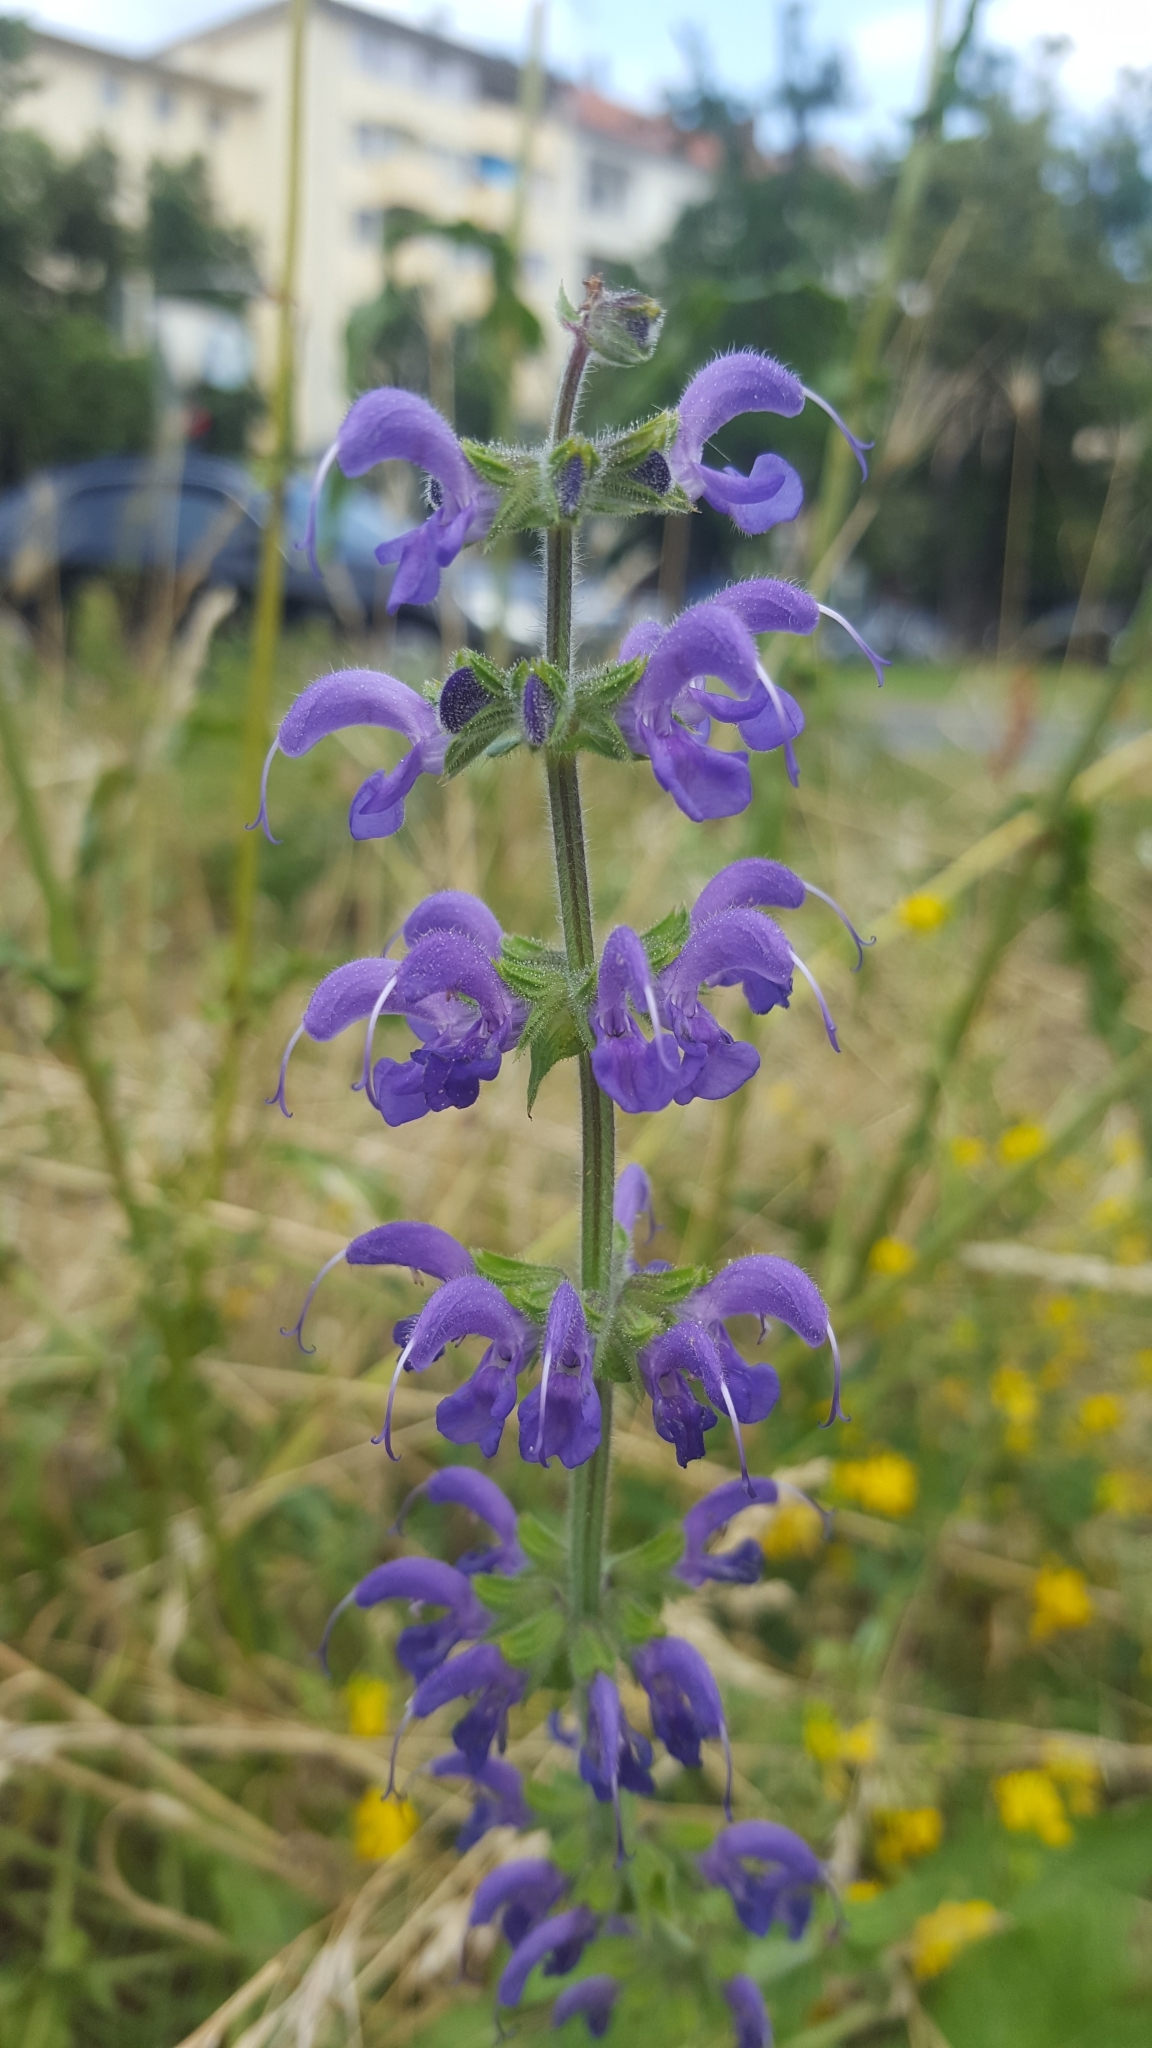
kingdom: Plantae
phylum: Tracheophyta
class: Magnoliopsida
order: Lamiales
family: Lamiaceae
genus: Salvia
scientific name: Salvia pratensis
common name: Meadow sage
